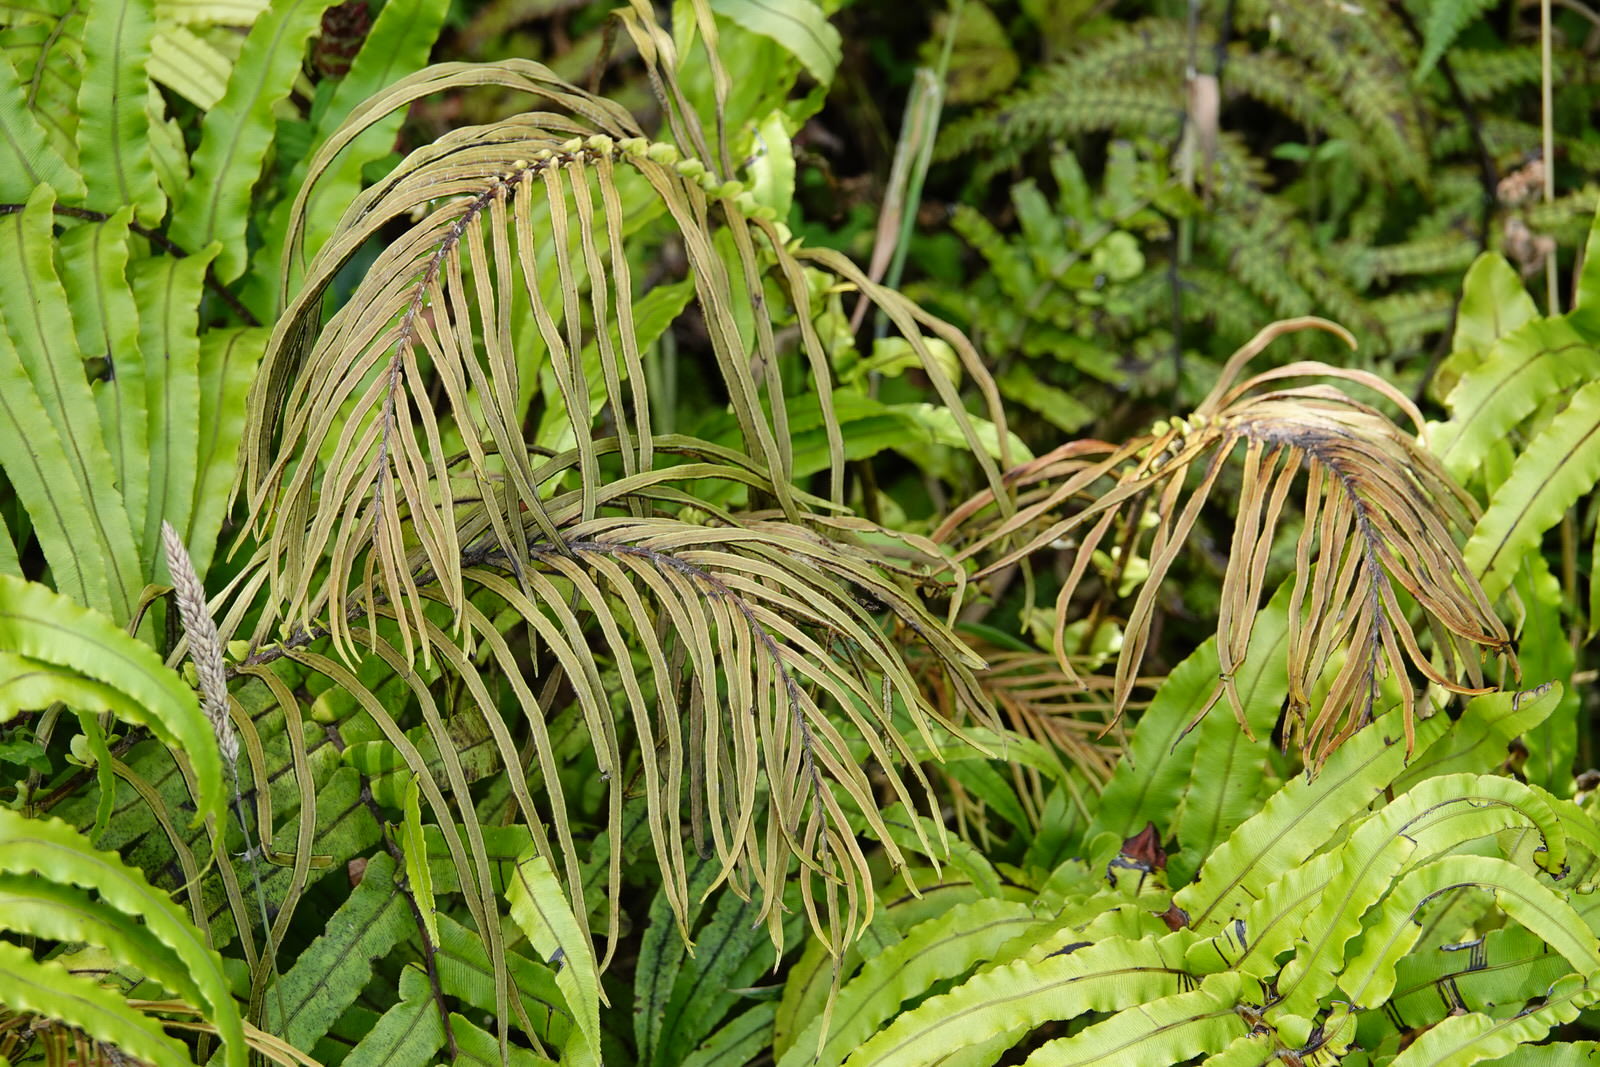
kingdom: Plantae
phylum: Tracheophyta
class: Polypodiopsida
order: Polypodiales
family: Blechnaceae
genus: Parablechnum
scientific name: Parablechnum novae-zelandiae
